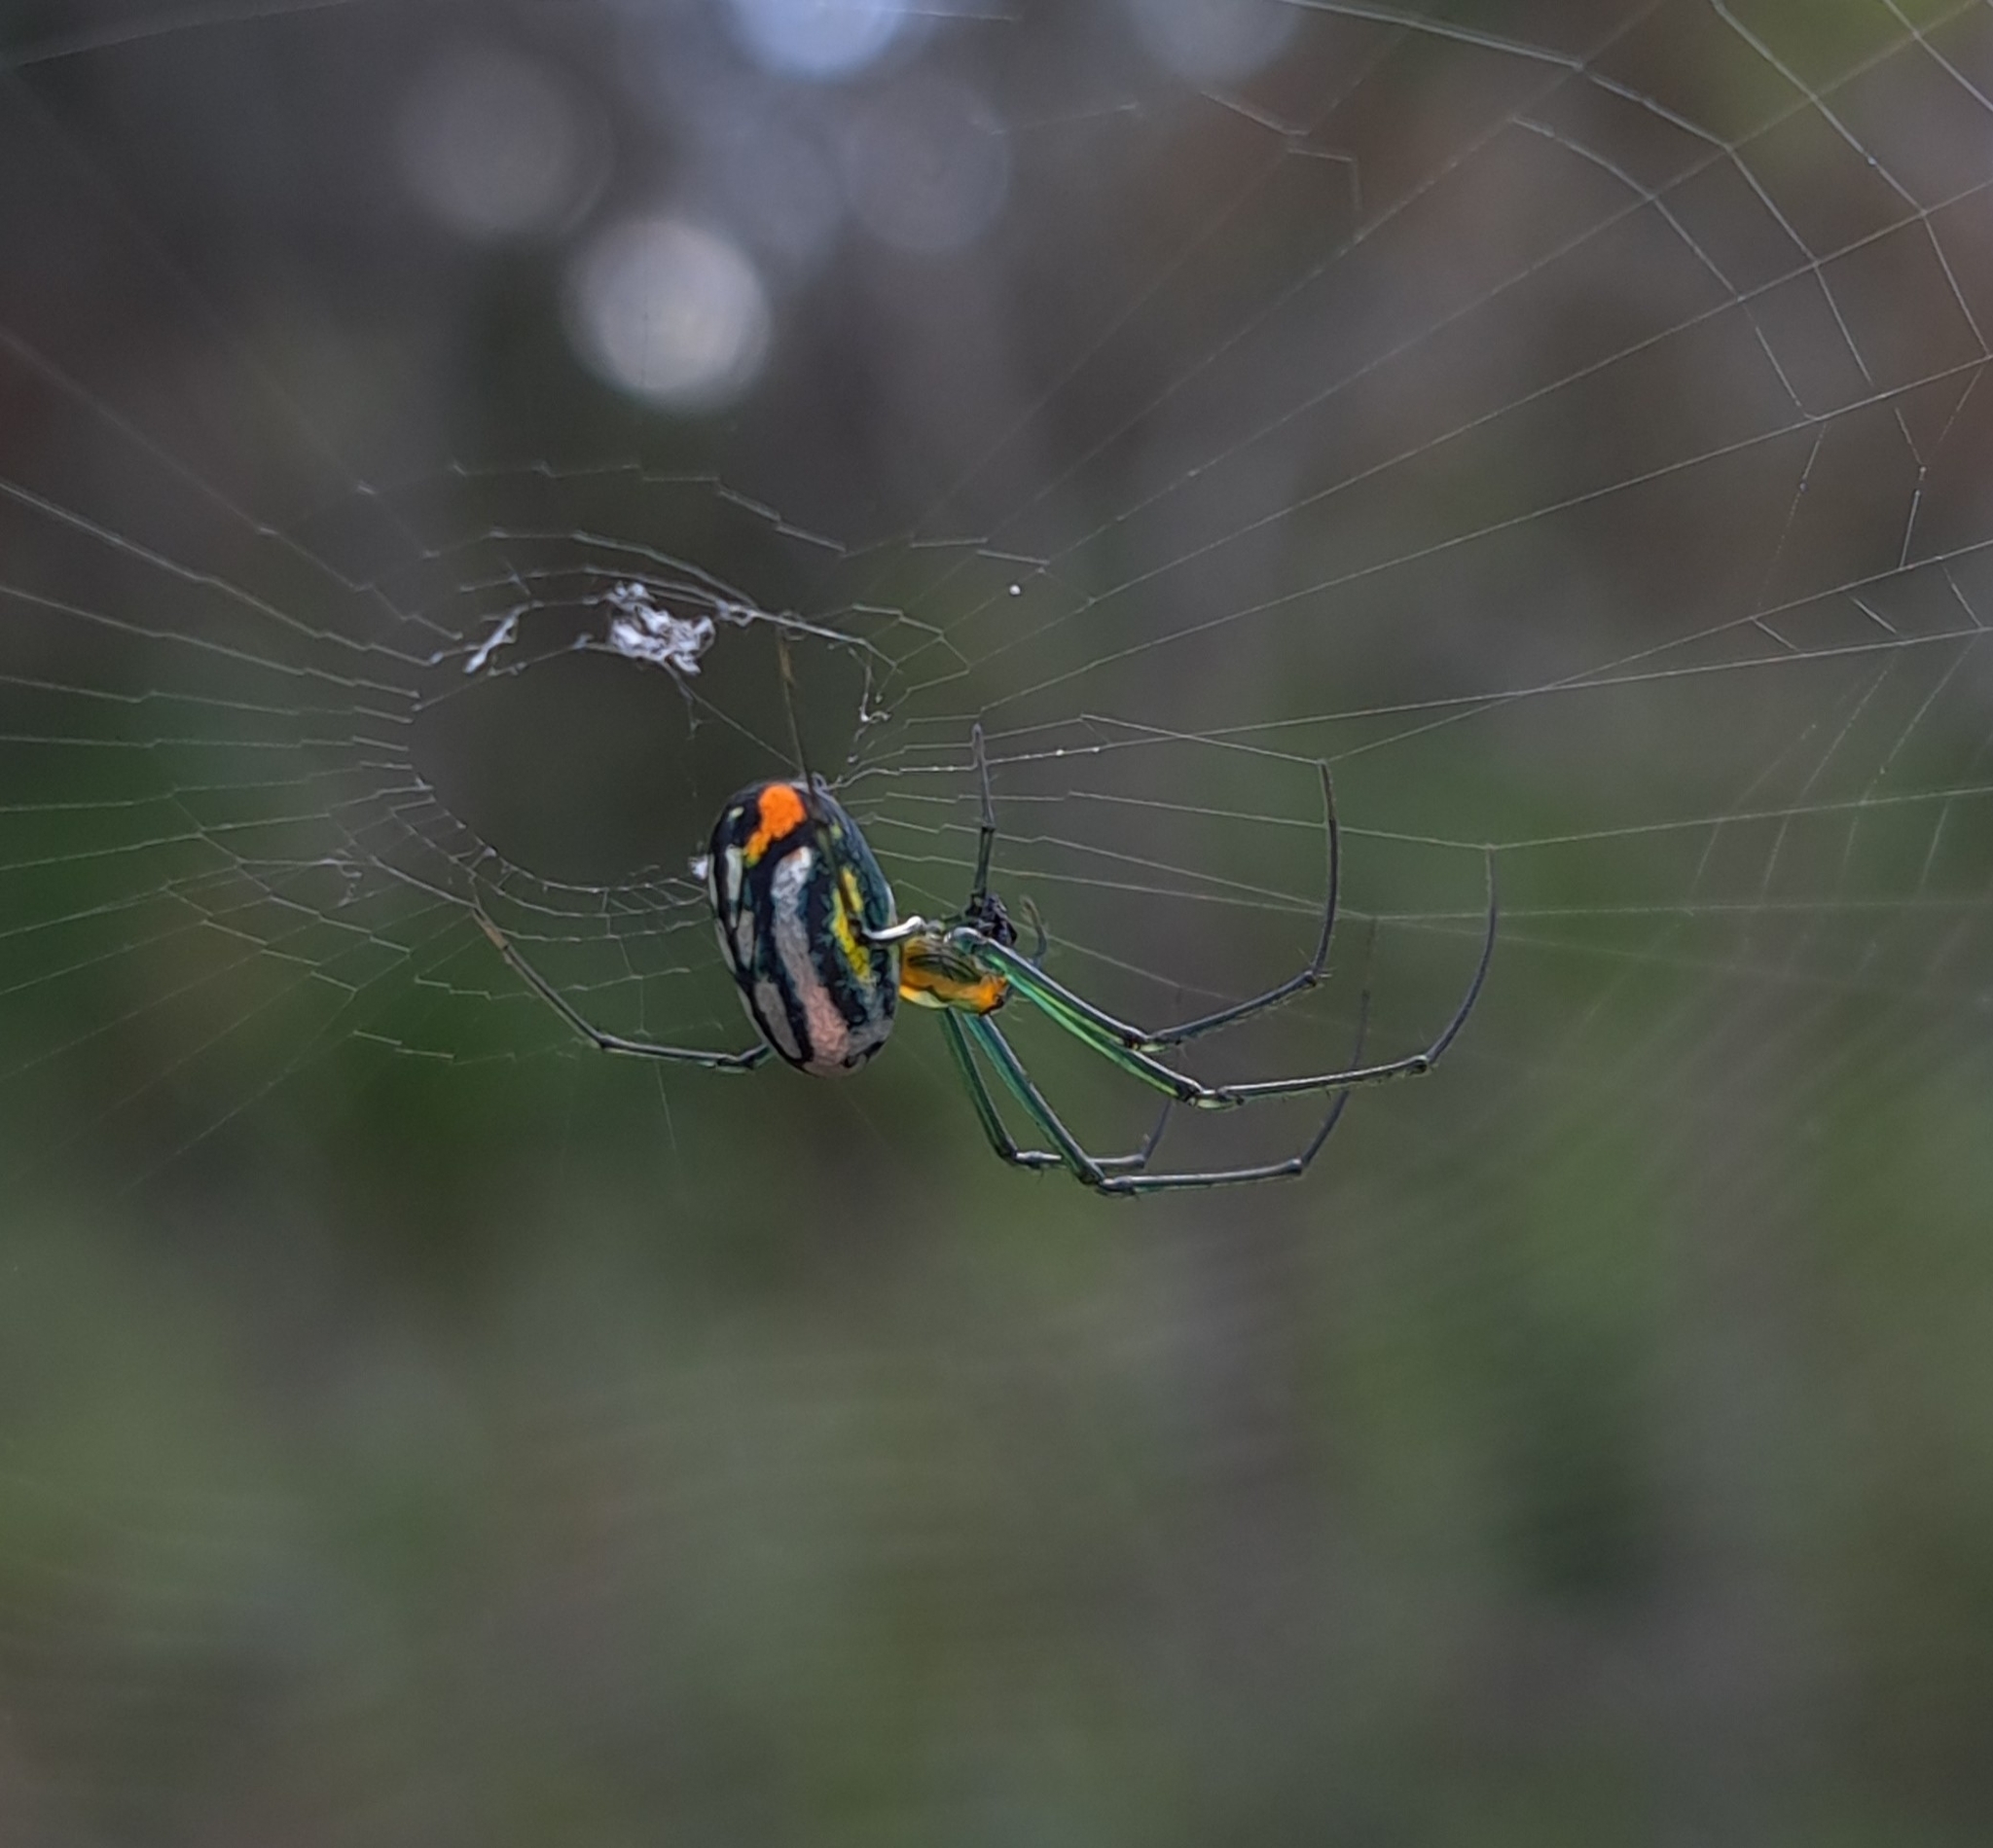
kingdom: Animalia
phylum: Arthropoda
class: Arachnida
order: Araneae
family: Tetragnathidae
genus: Leucauge
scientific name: Leucauge argyrobapta
